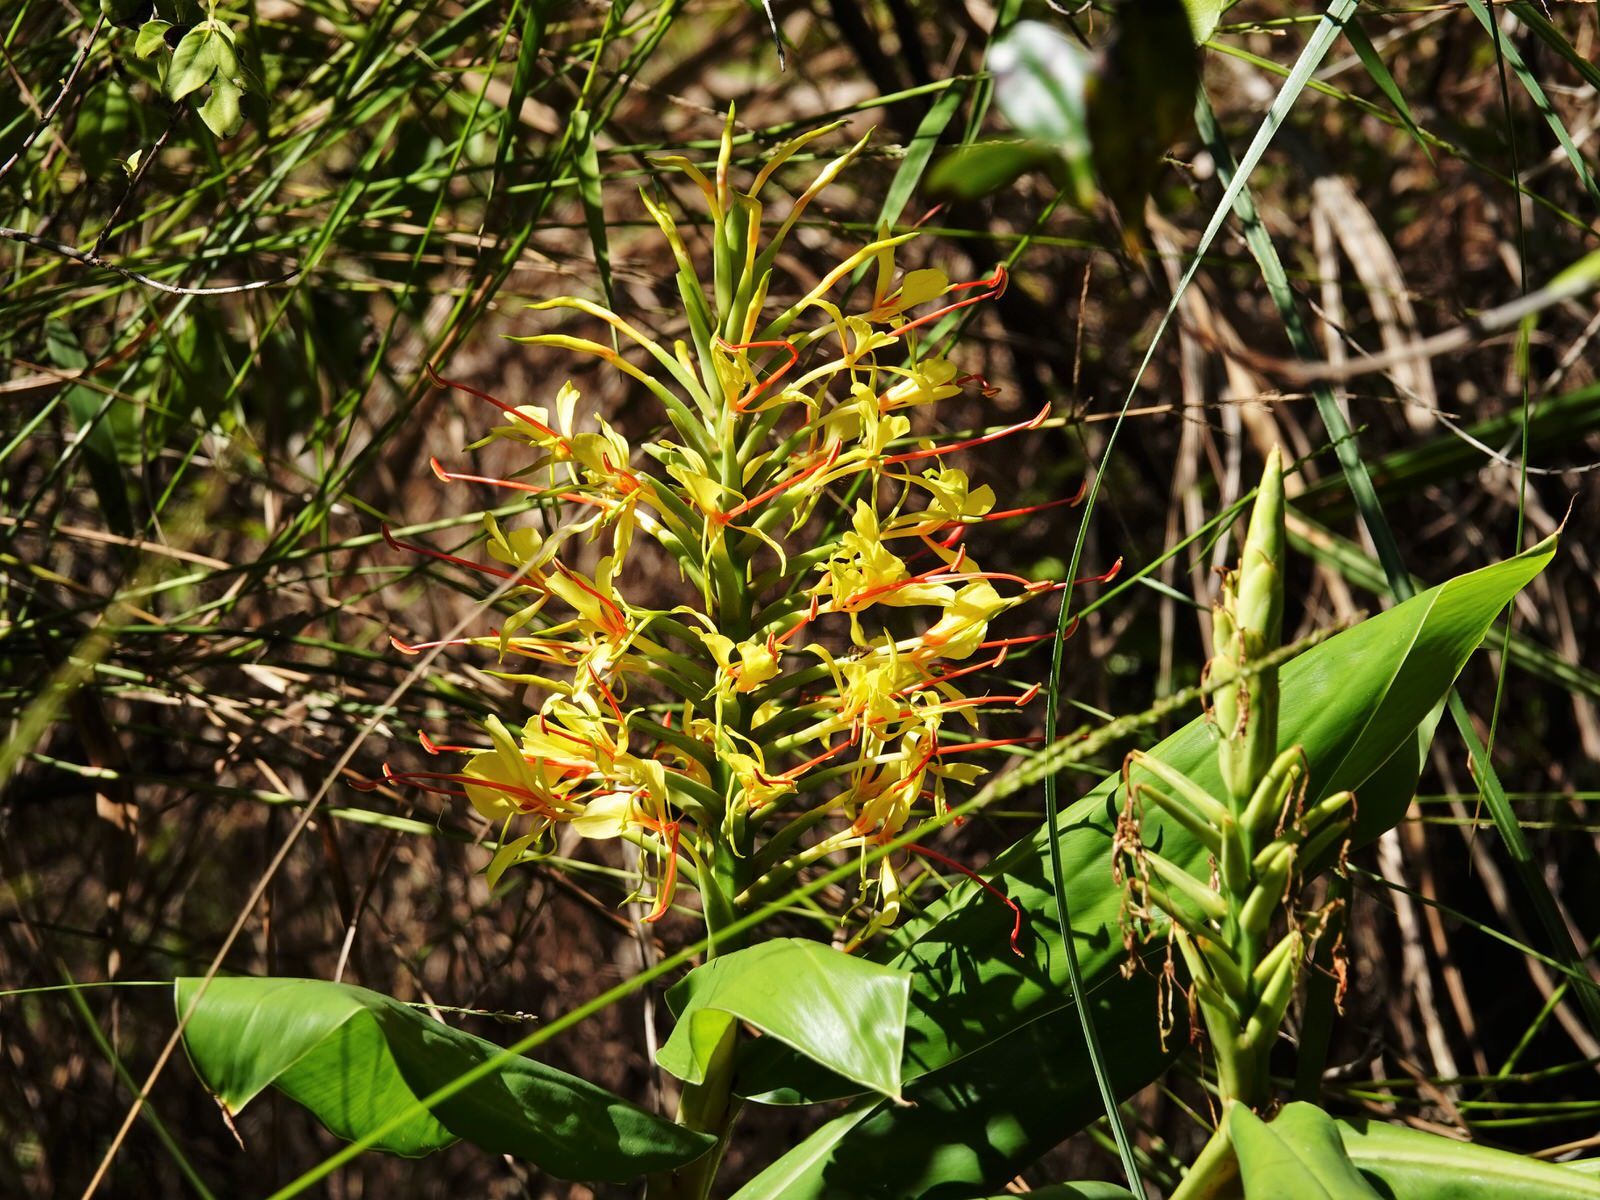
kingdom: Plantae
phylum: Tracheophyta
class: Liliopsida
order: Zingiberales
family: Zingiberaceae
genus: Hedychium
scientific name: Hedychium gardnerianum
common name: Himalayan ginger
